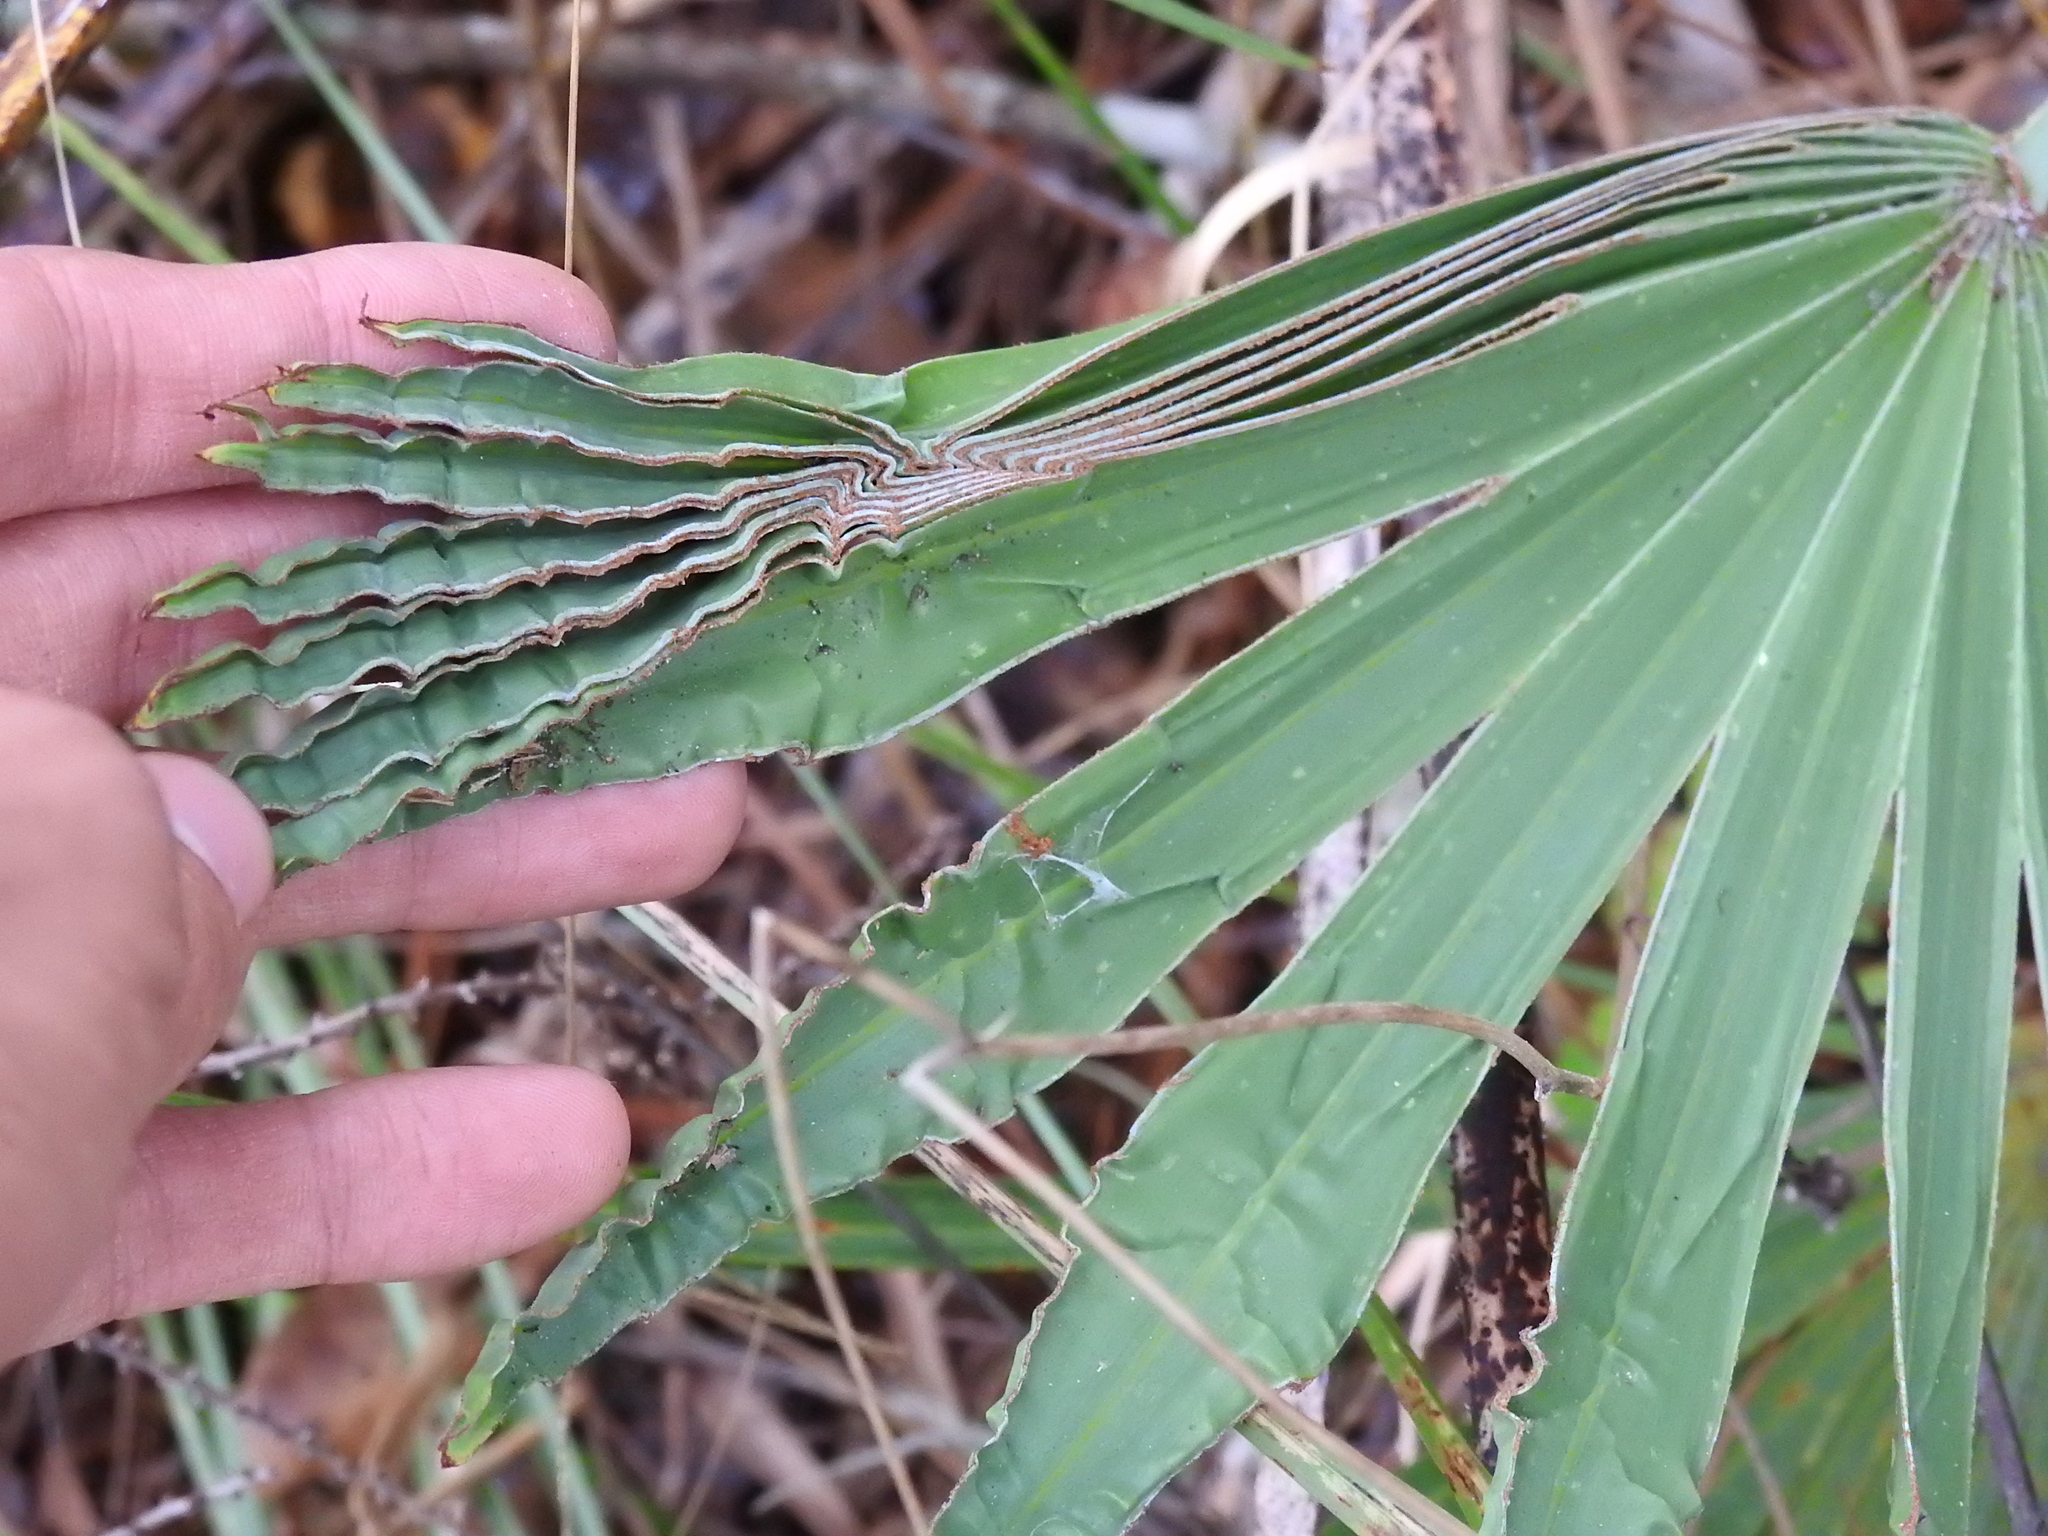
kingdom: Plantae
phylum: Tracheophyta
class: Liliopsida
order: Arecales
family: Arecaceae
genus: Serenoa
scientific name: Serenoa repens
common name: Saw-palmetto
